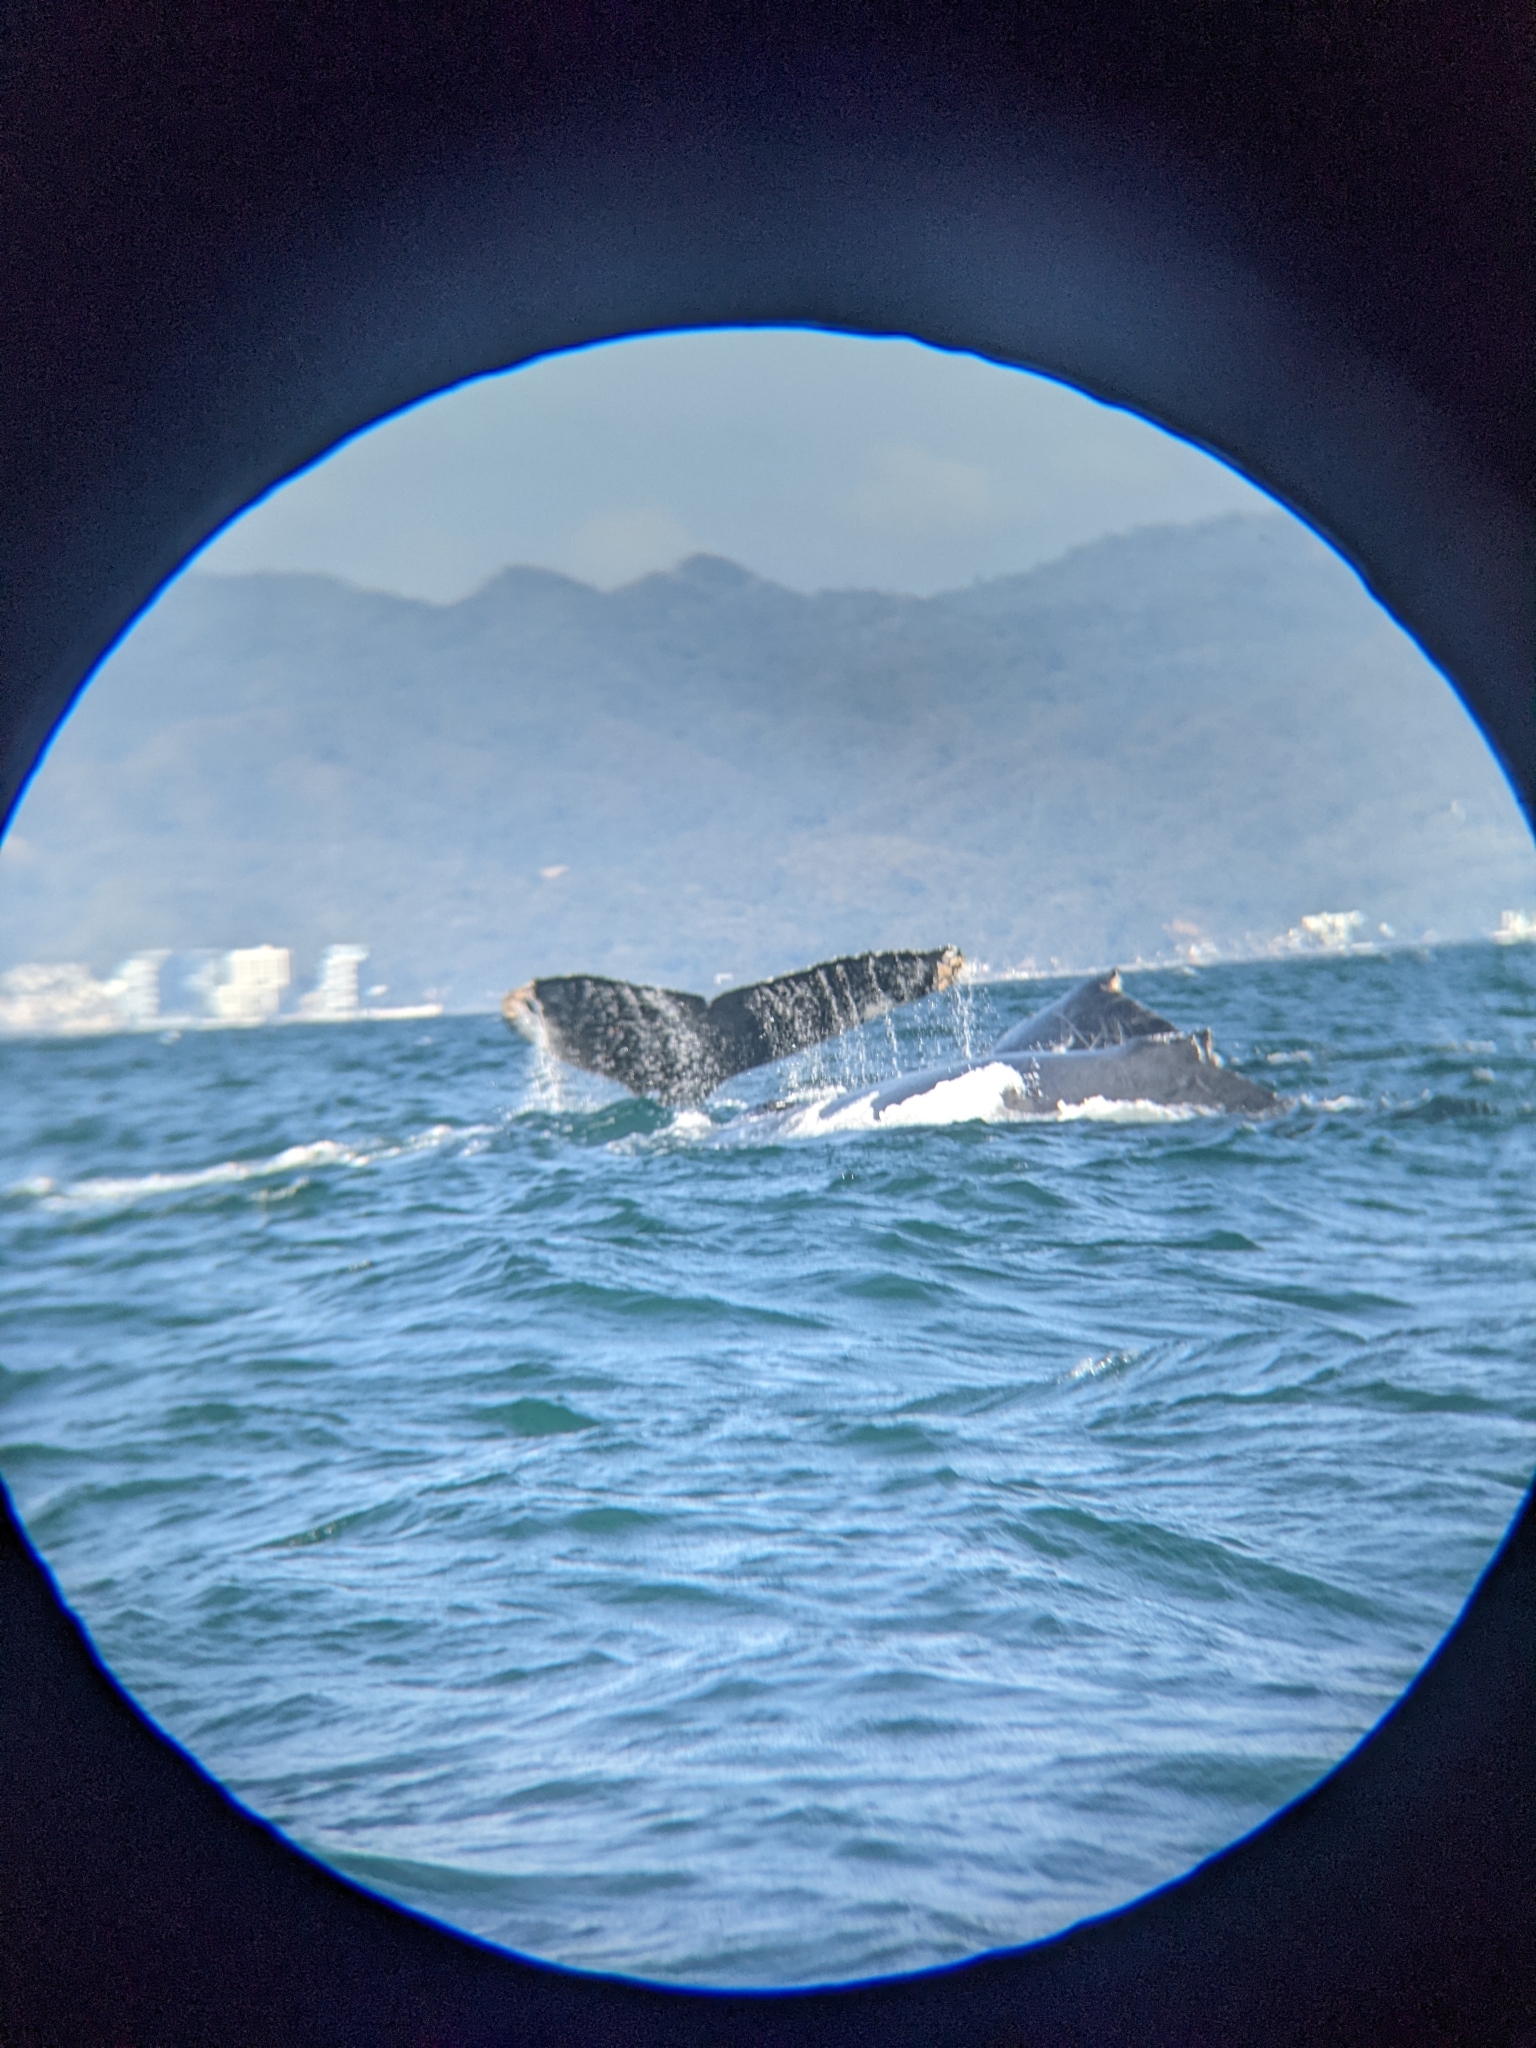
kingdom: Animalia
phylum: Chordata
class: Mammalia
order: Cetacea
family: Balaenopteridae
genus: Megaptera
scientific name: Megaptera novaeangliae
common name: Humpback whale
